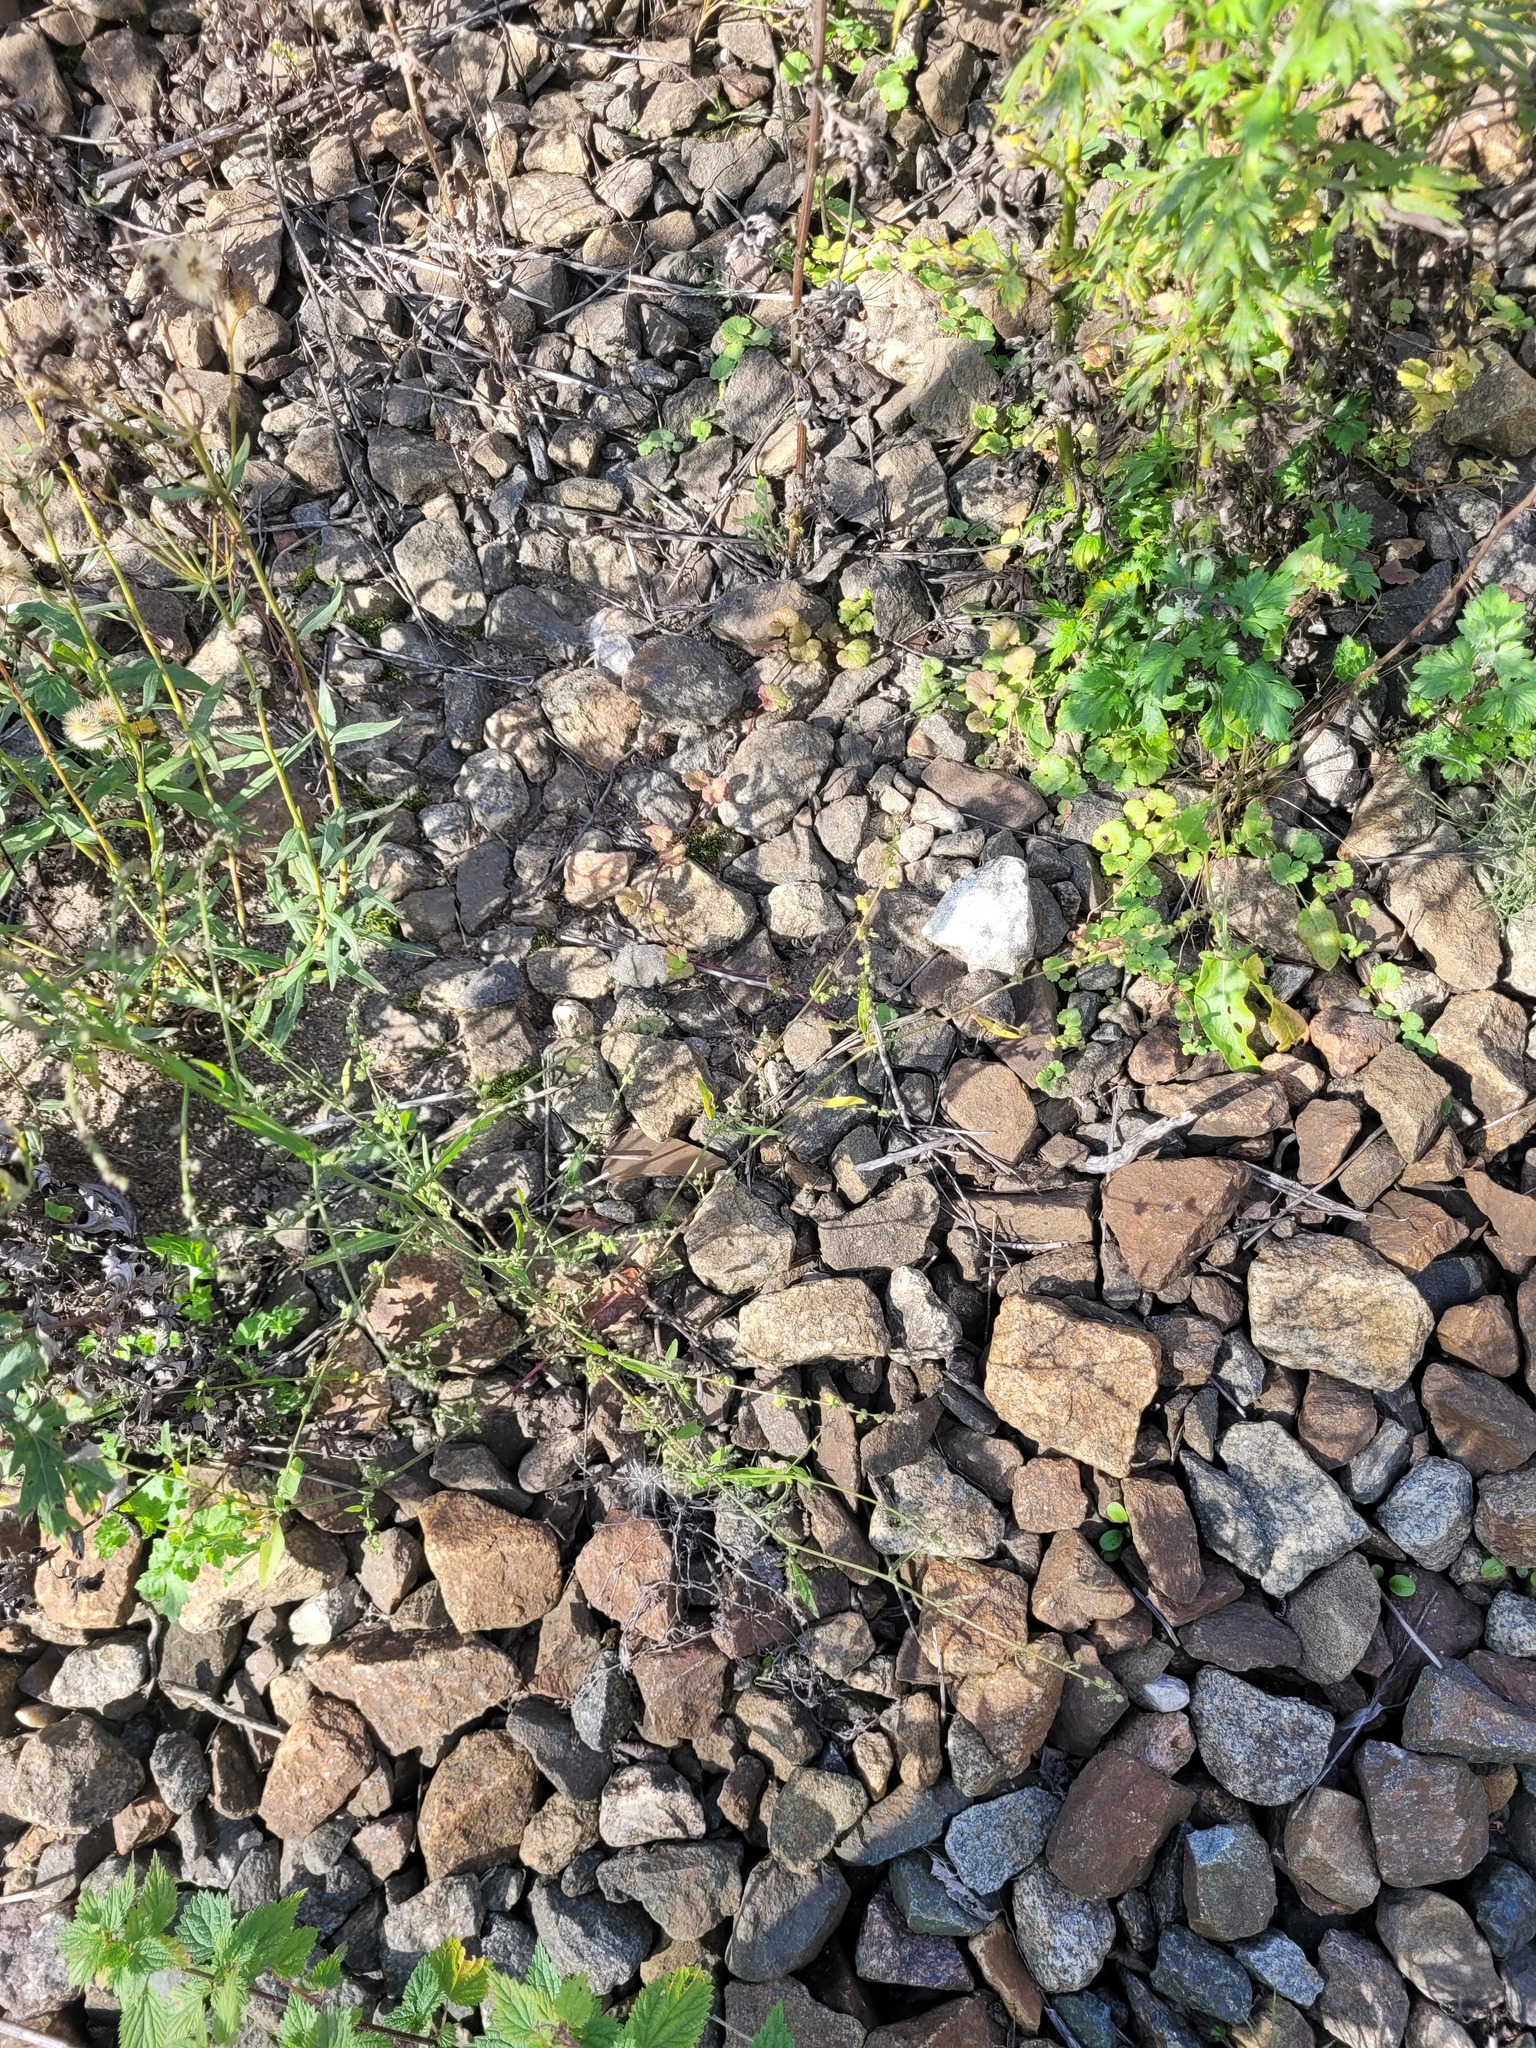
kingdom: Plantae
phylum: Tracheophyta
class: Magnoliopsida
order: Caryophyllales
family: Amaranthaceae
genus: Atriplex
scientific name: Atriplex patula
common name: Common orache
